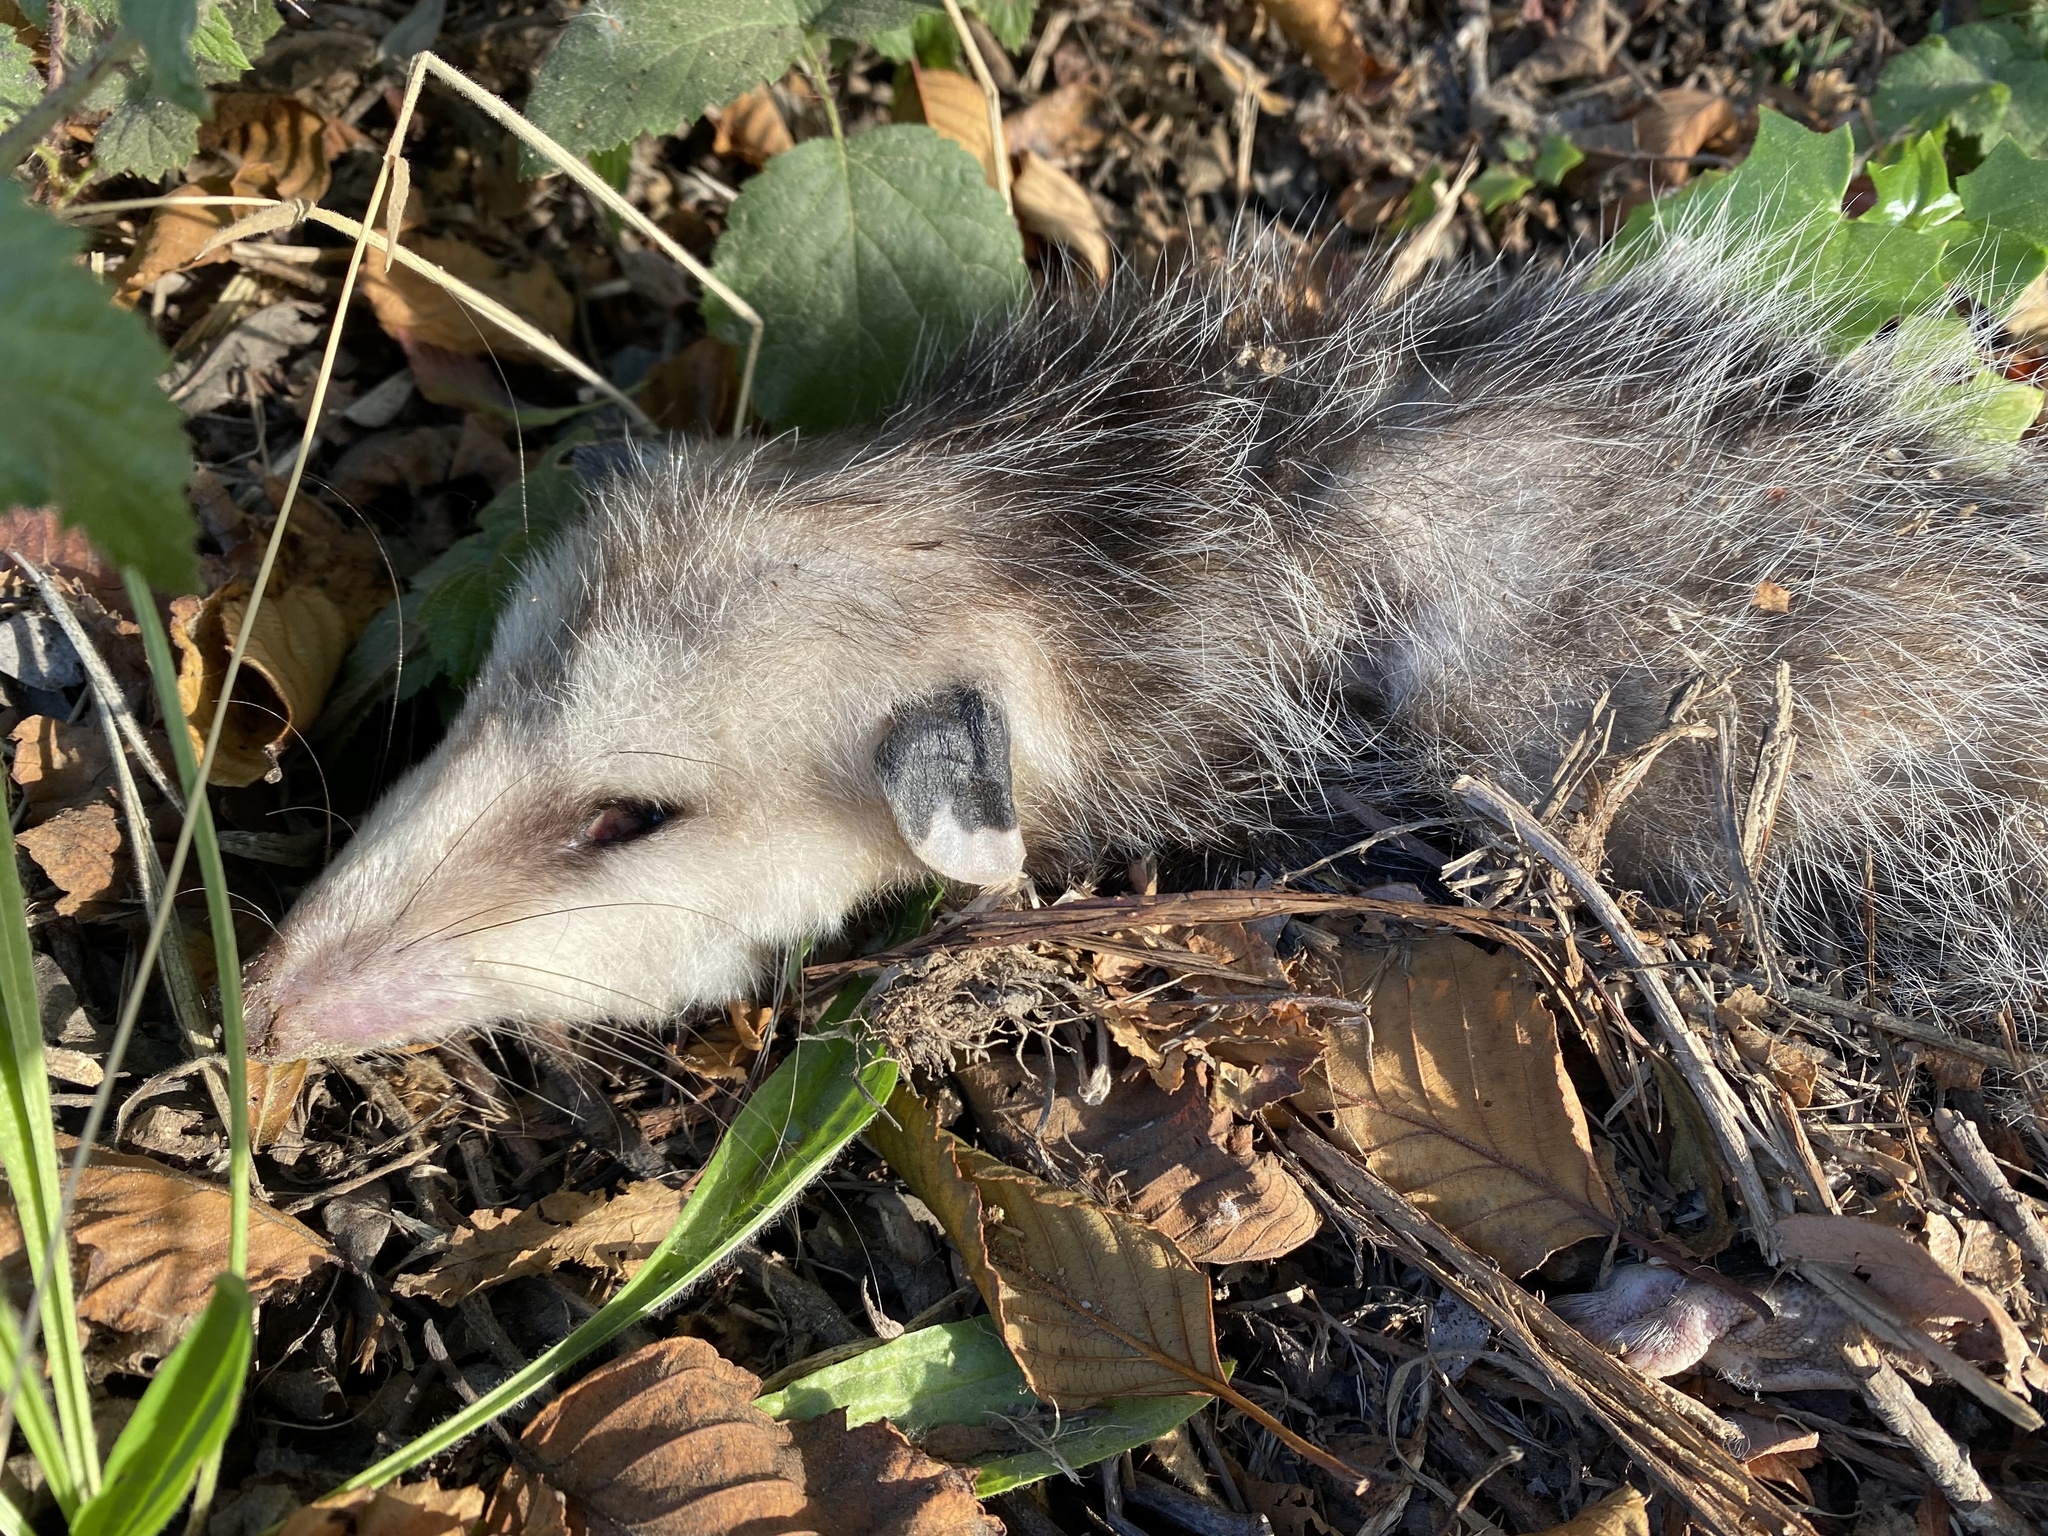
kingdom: Animalia
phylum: Chordata
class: Mammalia
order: Didelphimorphia
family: Didelphidae
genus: Didelphis
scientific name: Didelphis virginiana
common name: Virginia opossum
